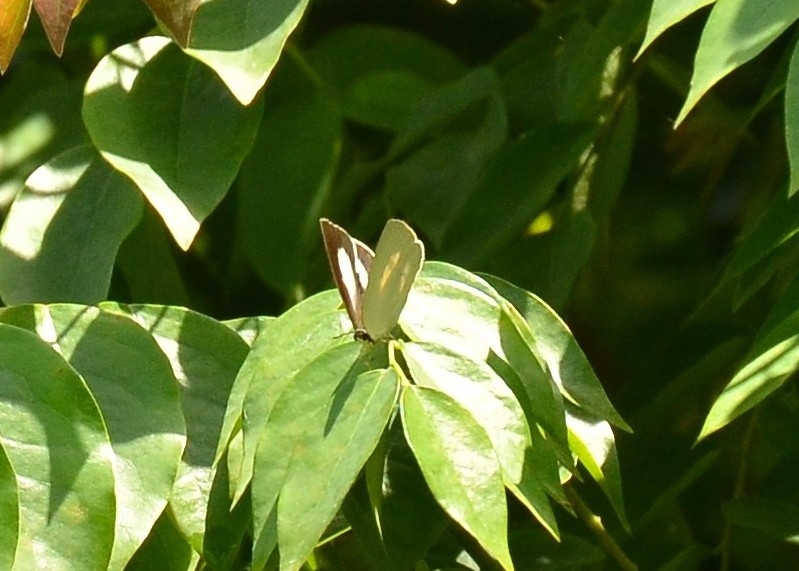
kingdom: Animalia
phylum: Arthropoda
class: Insecta
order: Lepidoptera
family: Lycaenidae
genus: Curetis
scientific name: Curetis thetis
